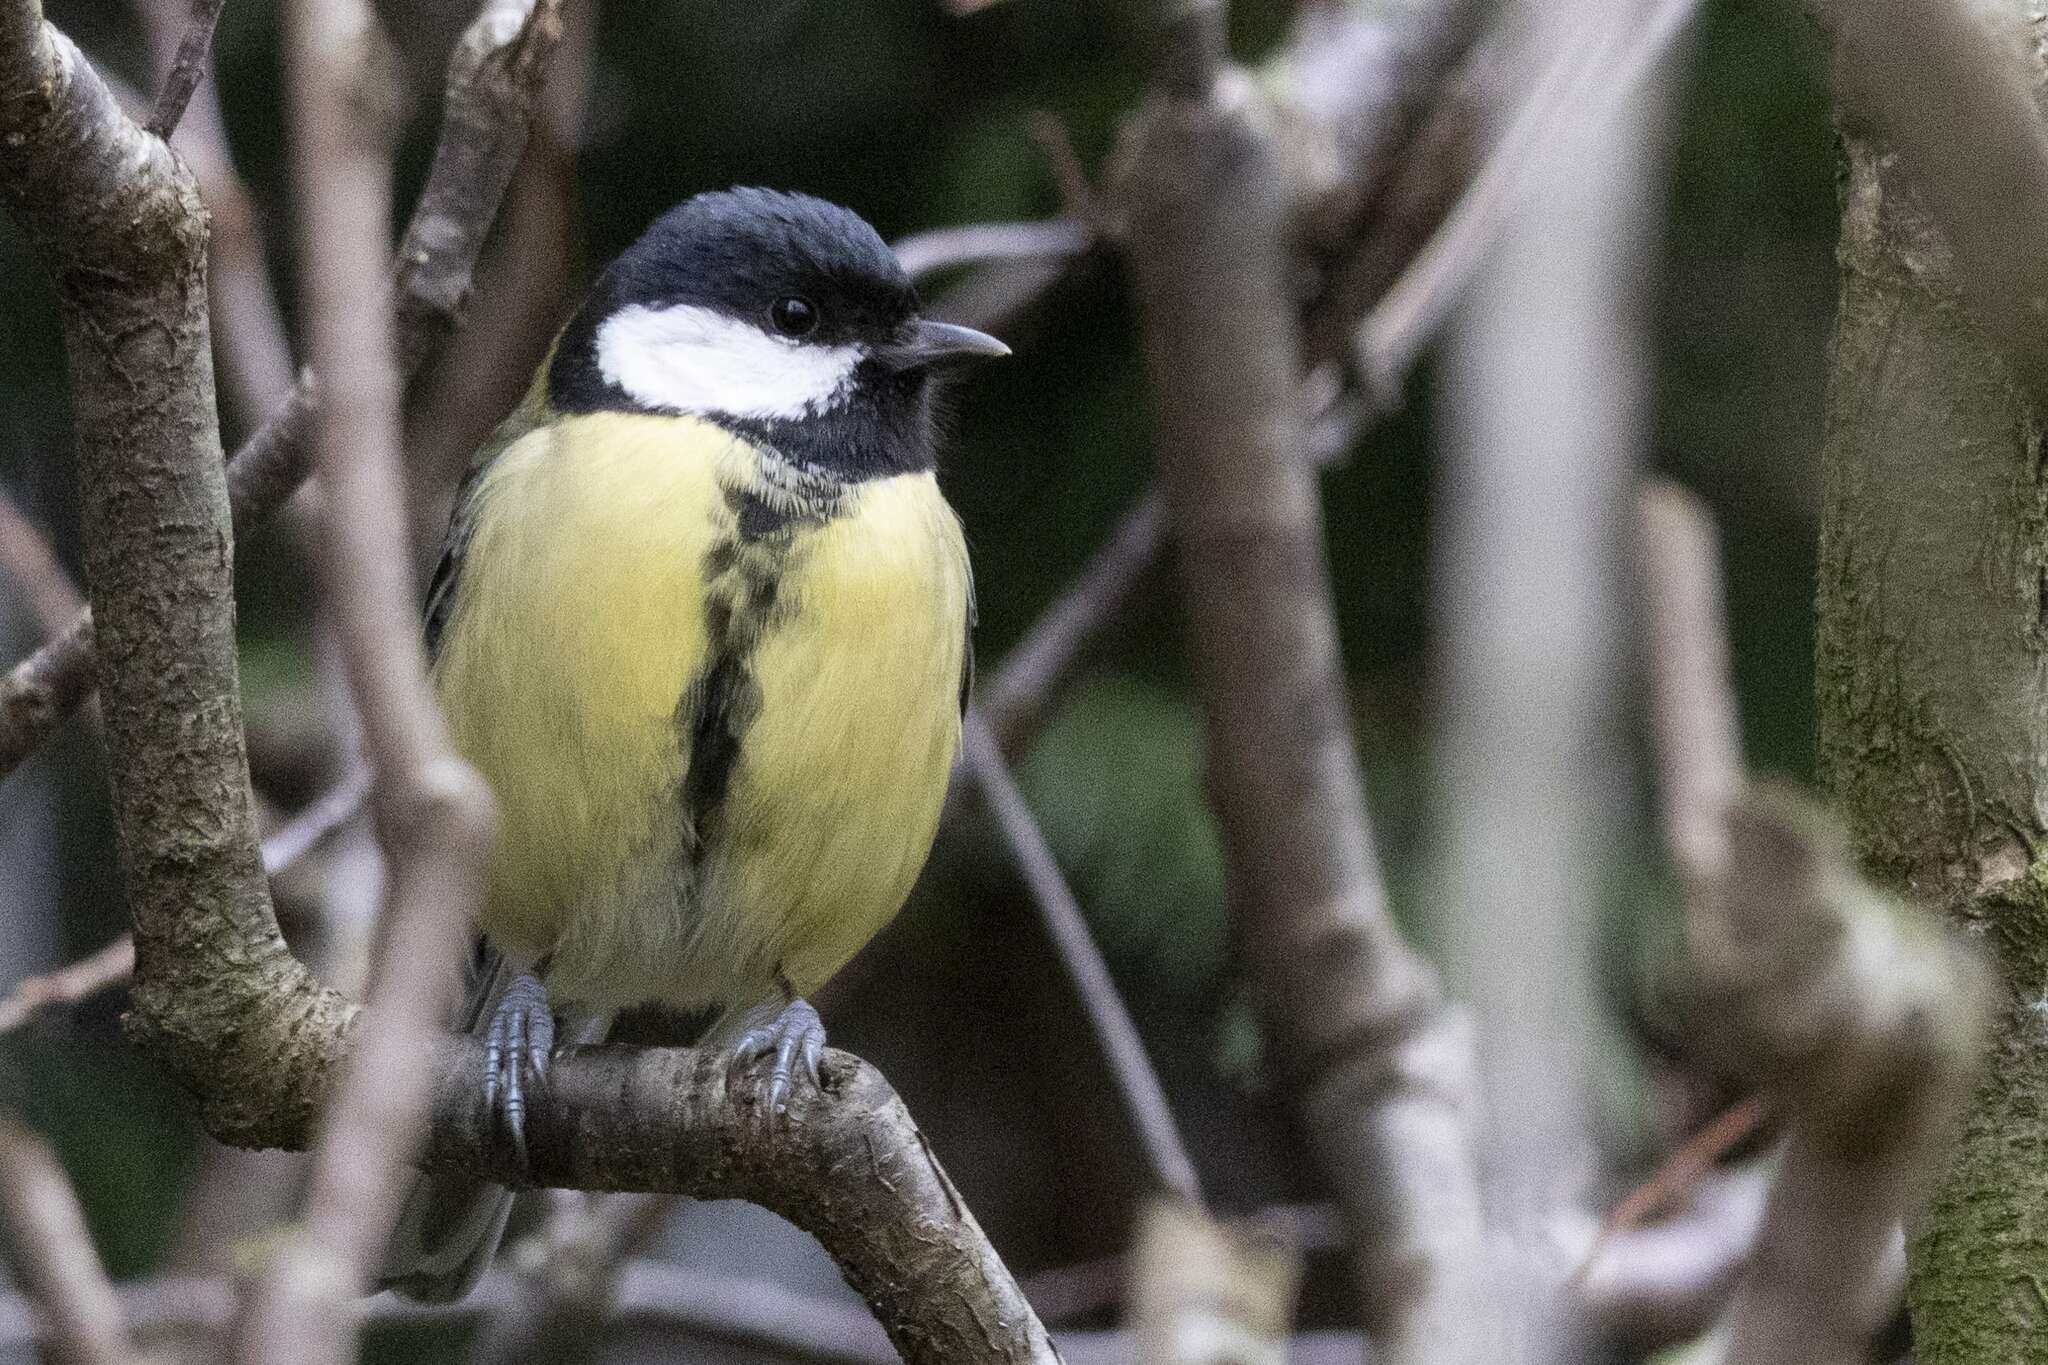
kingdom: Animalia
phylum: Chordata
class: Aves
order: Passeriformes
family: Paridae
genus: Parus
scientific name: Parus major
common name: Great tit
